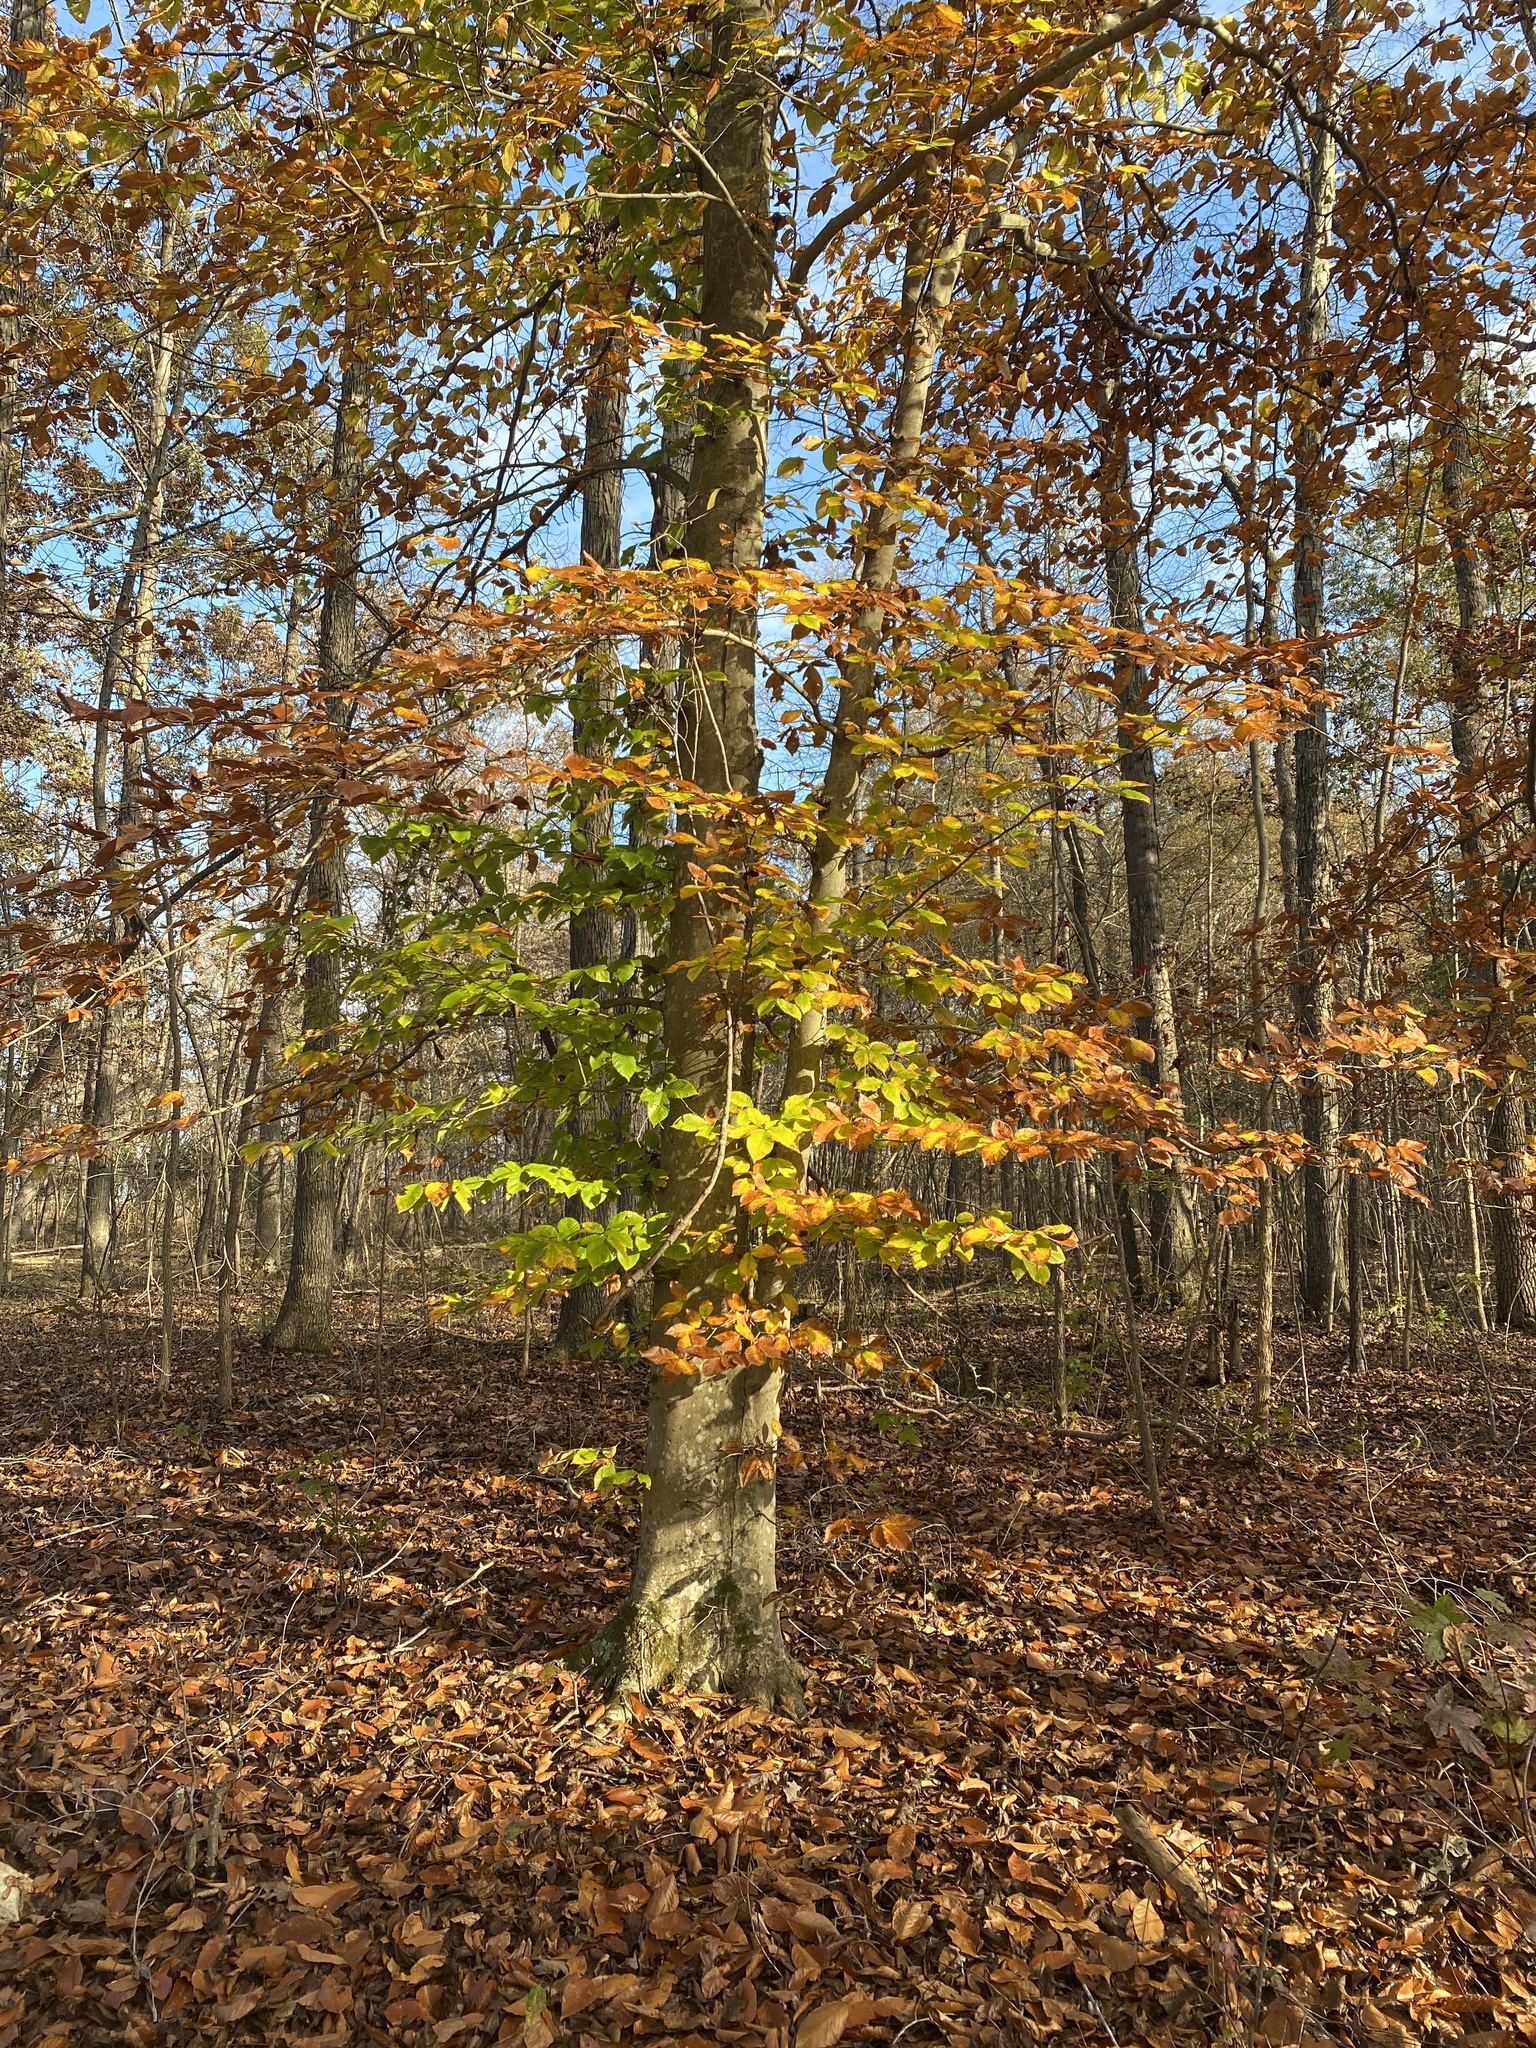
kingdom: Plantae
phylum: Tracheophyta
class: Magnoliopsida
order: Fagales
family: Fagaceae
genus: Fagus
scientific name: Fagus grandifolia
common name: American beech
